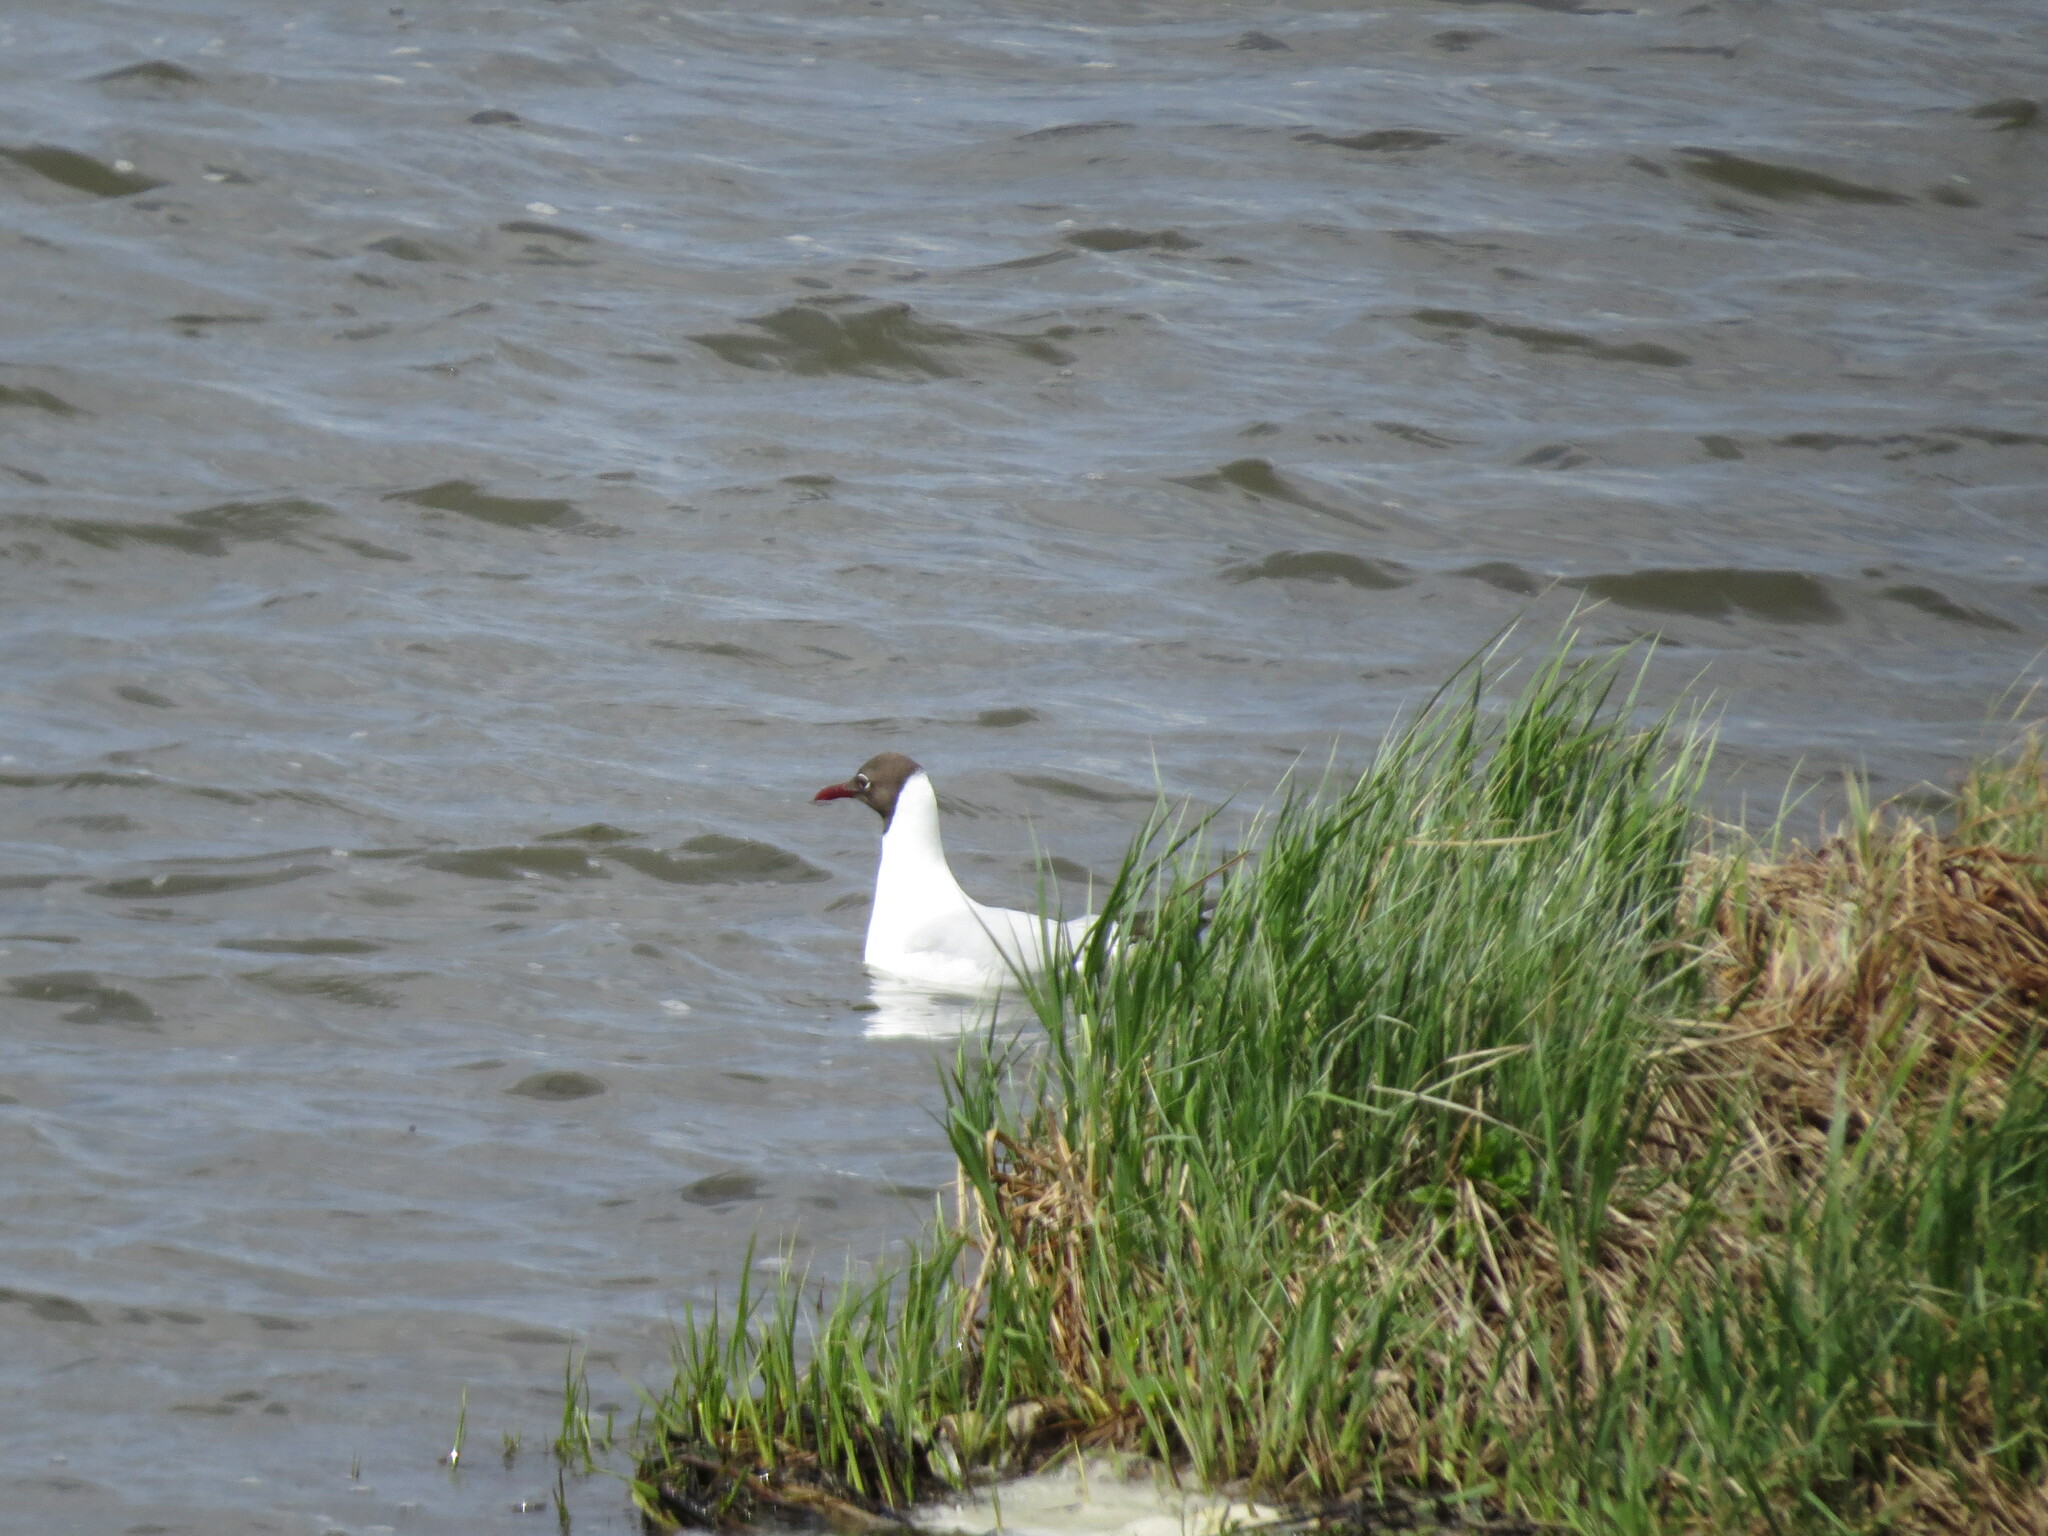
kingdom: Animalia
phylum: Chordata
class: Aves
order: Charadriiformes
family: Laridae
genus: Chroicocephalus
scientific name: Chroicocephalus ridibundus
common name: Black-headed gull
